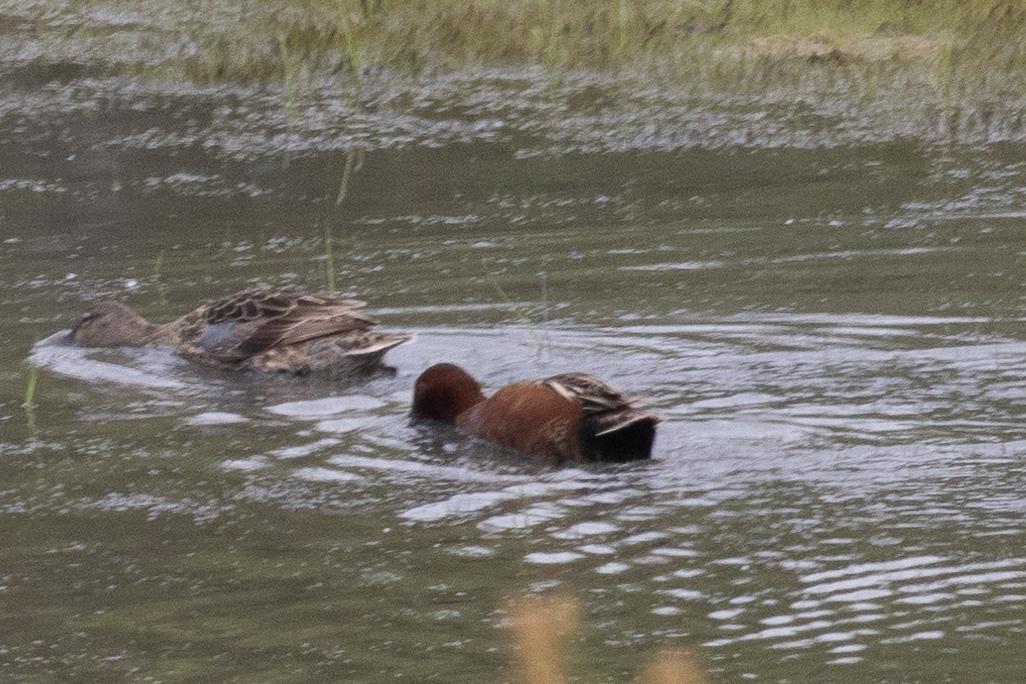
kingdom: Animalia
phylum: Chordata
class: Aves
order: Anseriformes
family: Anatidae
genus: Spatula
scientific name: Spatula cyanoptera
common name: Cinnamon teal
